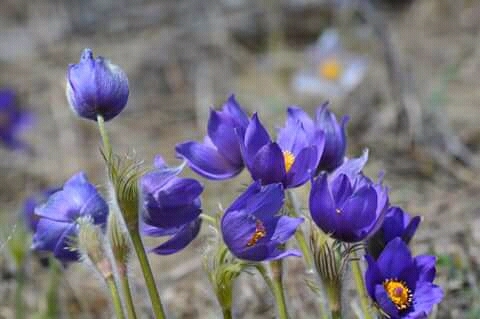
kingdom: Plantae
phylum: Tracheophyta
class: Magnoliopsida
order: Ranunculales
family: Ranunculaceae
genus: Pulsatilla
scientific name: Pulsatilla patens
